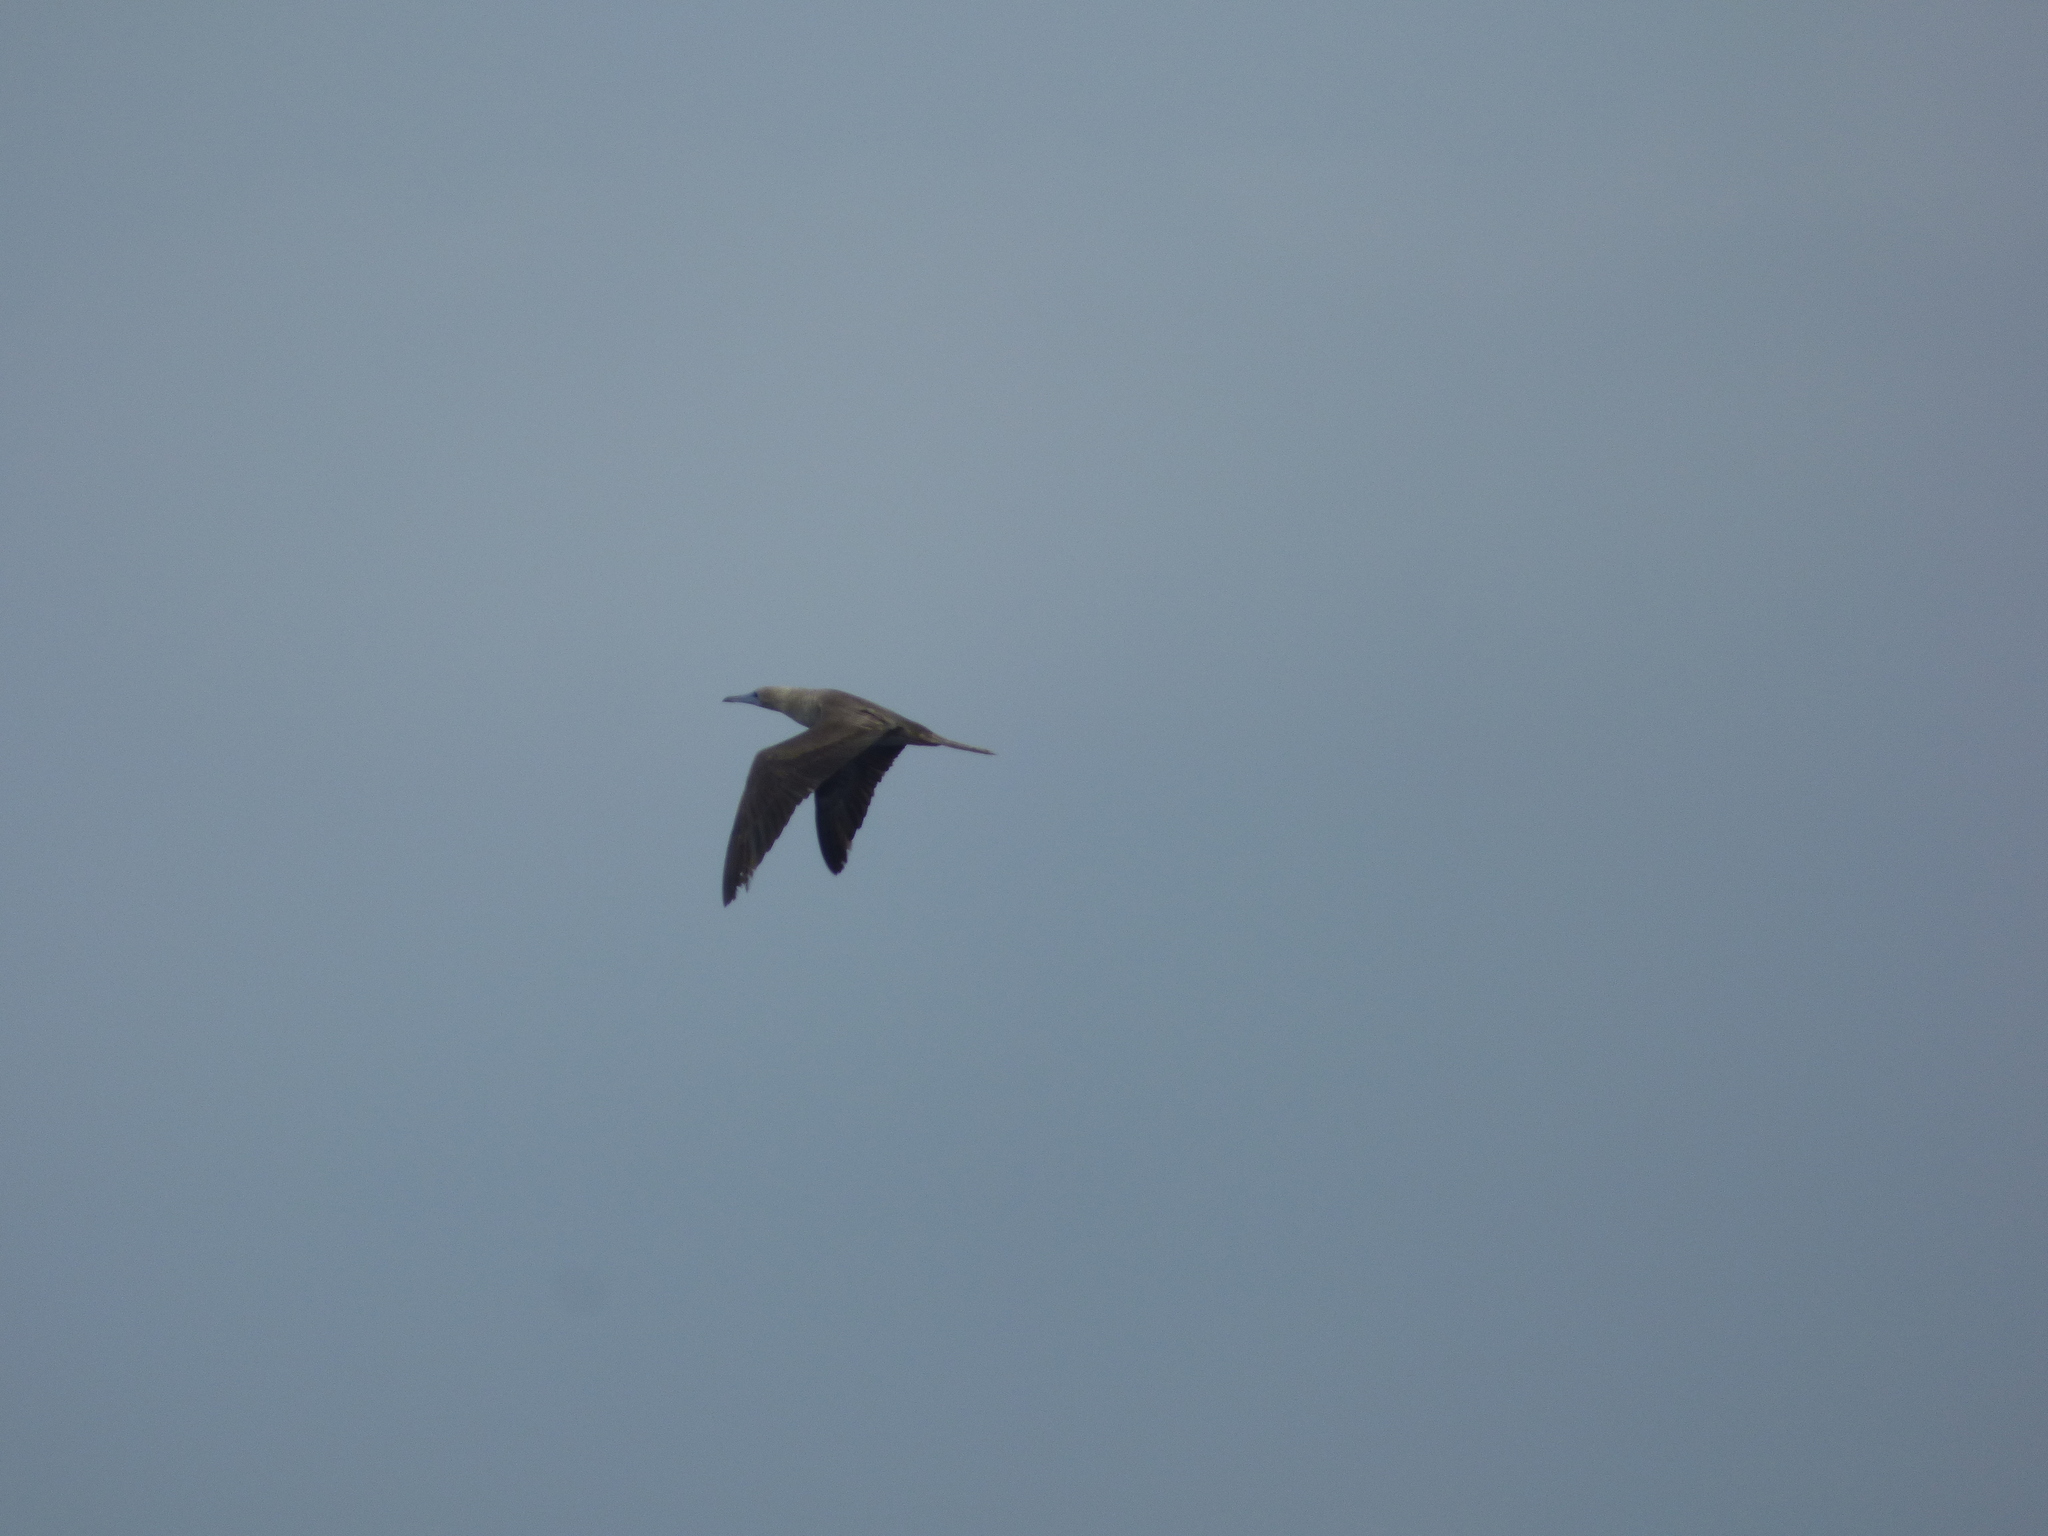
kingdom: Animalia
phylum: Chordata
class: Aves
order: Suliformes
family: Sulidae
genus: Sula
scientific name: Sula sula
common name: Red-footed booby
